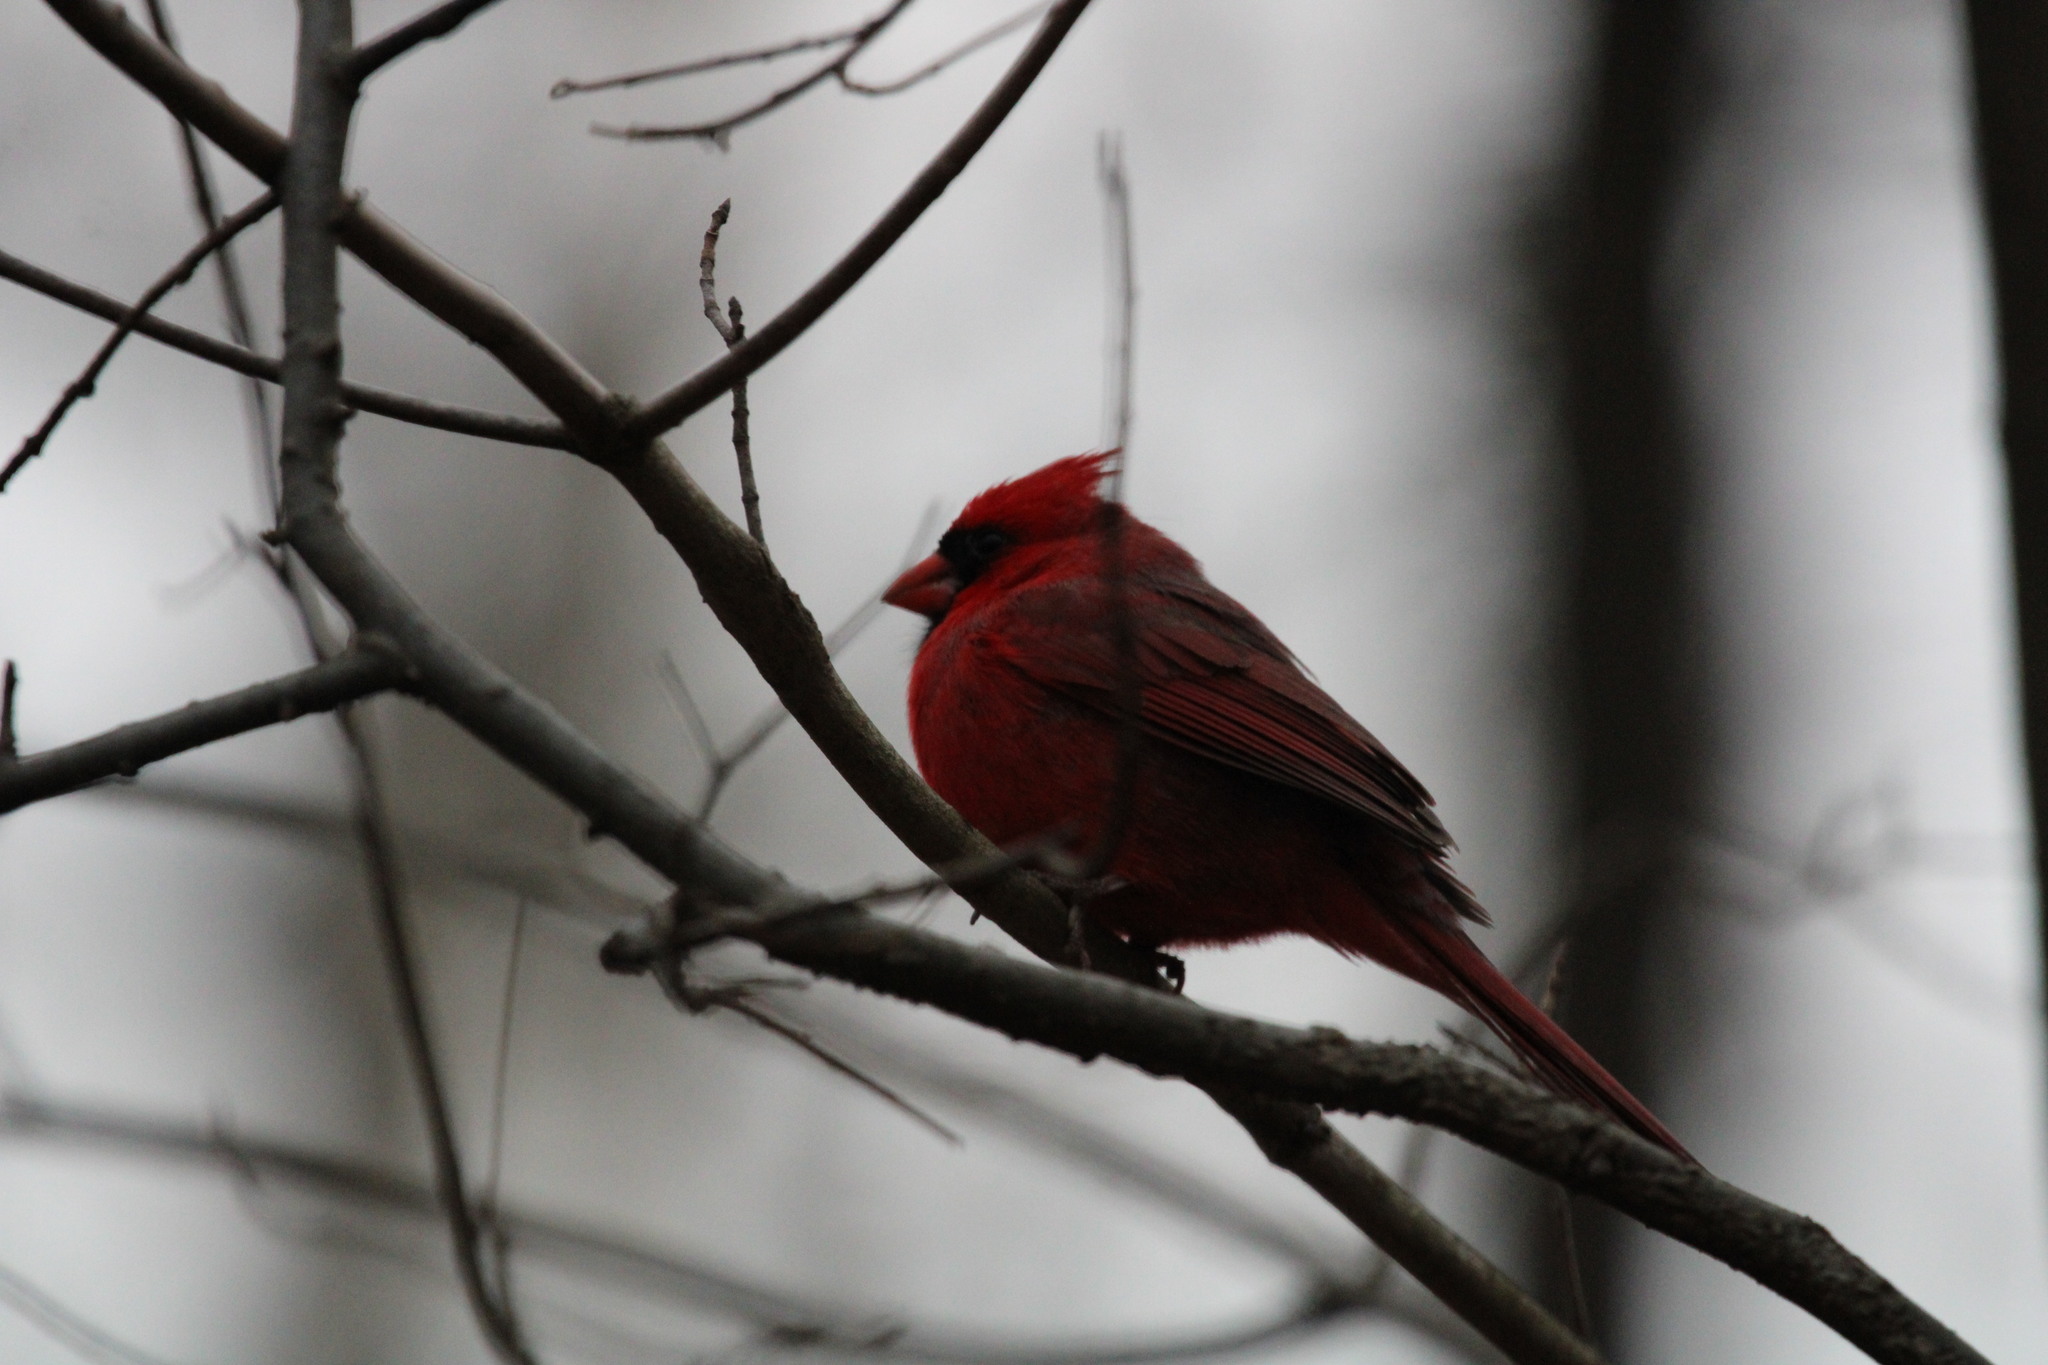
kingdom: Animalia
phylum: Chordata
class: Aves
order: Passeriformes
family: Cardinalidae
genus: Cardinalis
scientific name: Cardinalis cardinalis
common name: Northern cardinal
